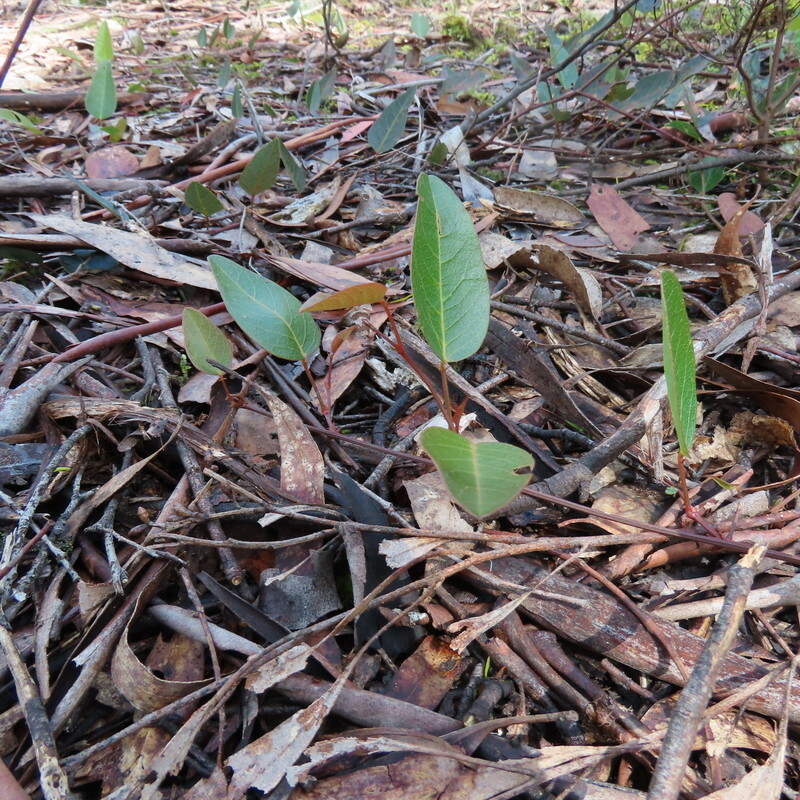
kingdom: Plantae
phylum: Tracheophyta
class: Magnoliopsida
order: Fabales
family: Fabaceae
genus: Hardenbergia
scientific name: Hardenbergia violacea
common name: Coral-pea
